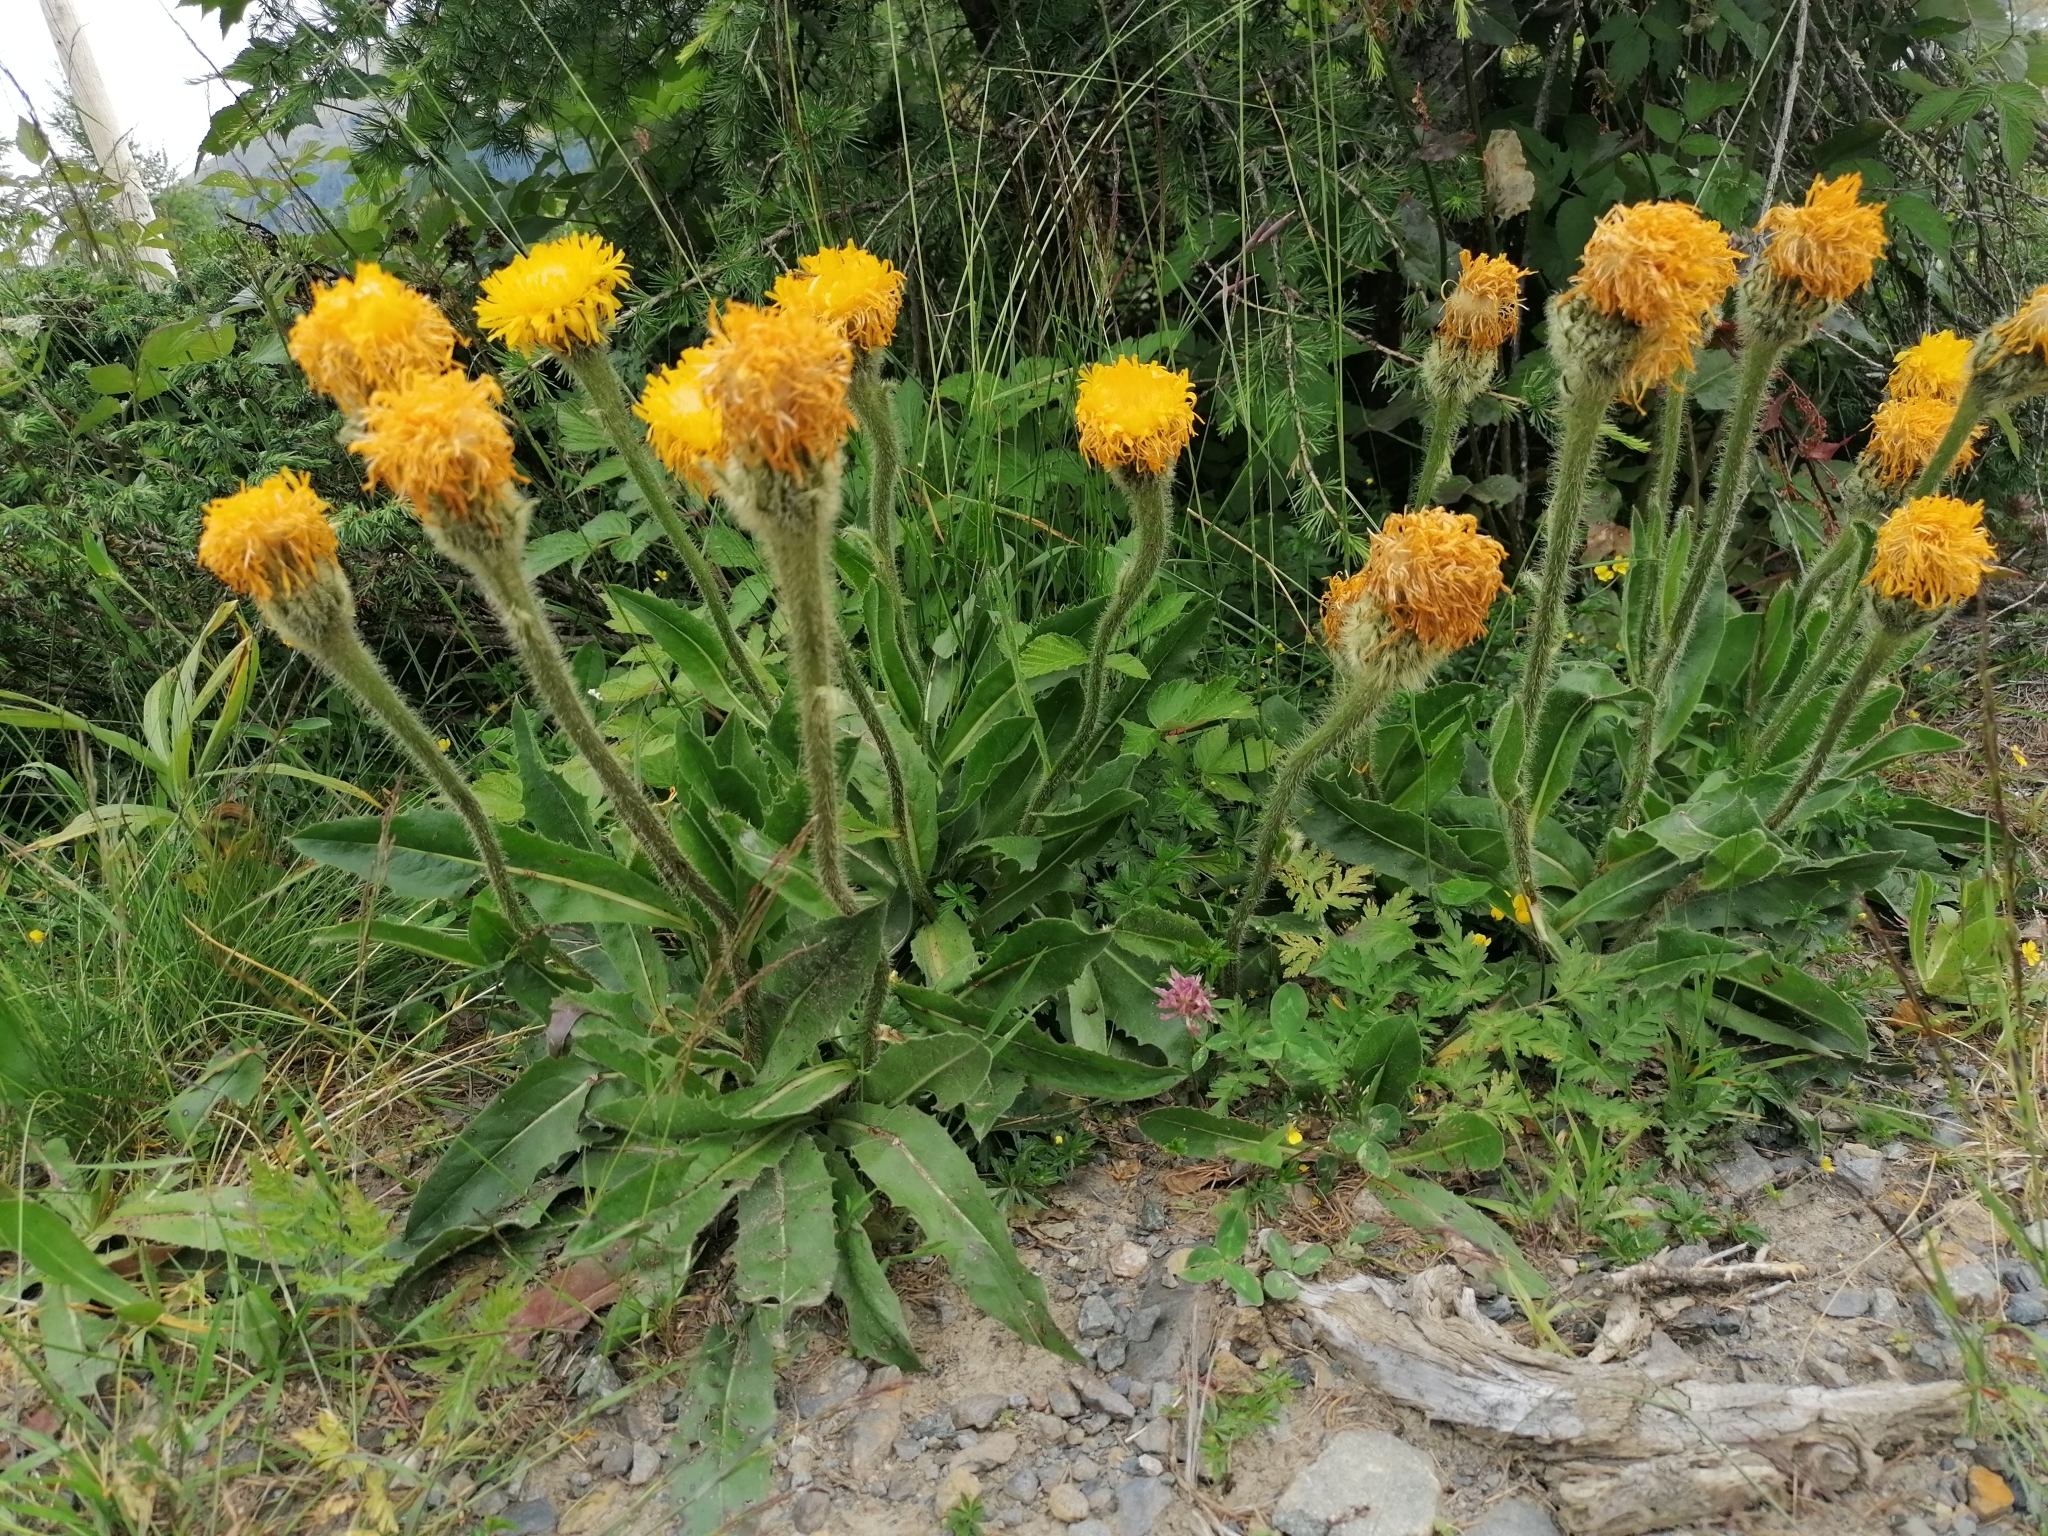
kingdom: Plantae
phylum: Tracheophyta
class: Magnoliopsida
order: Asterales
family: Asteraceae
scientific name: Asteraceae
